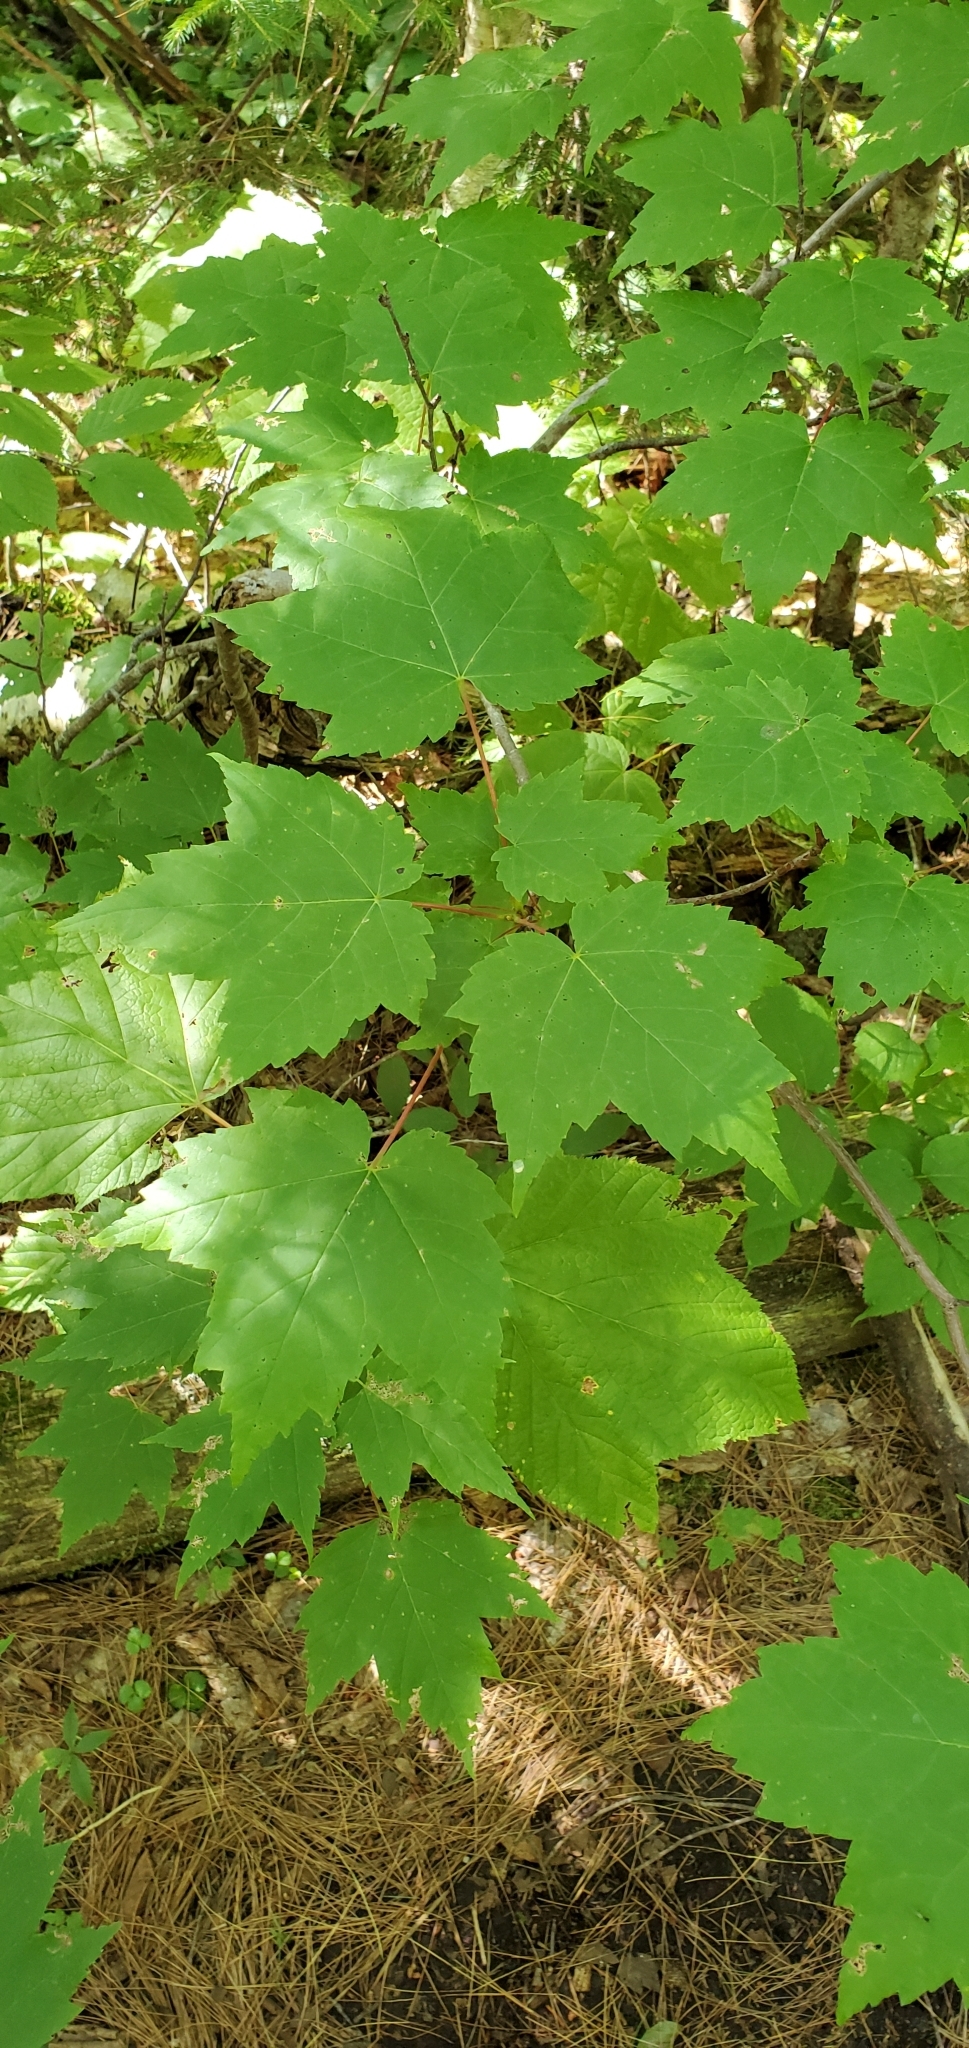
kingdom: Plantae
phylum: Tracheophyta
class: Magnoliopsida
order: Sapindales
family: Sapindaceae
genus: Acer
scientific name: Acer rubrum
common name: Red maple
